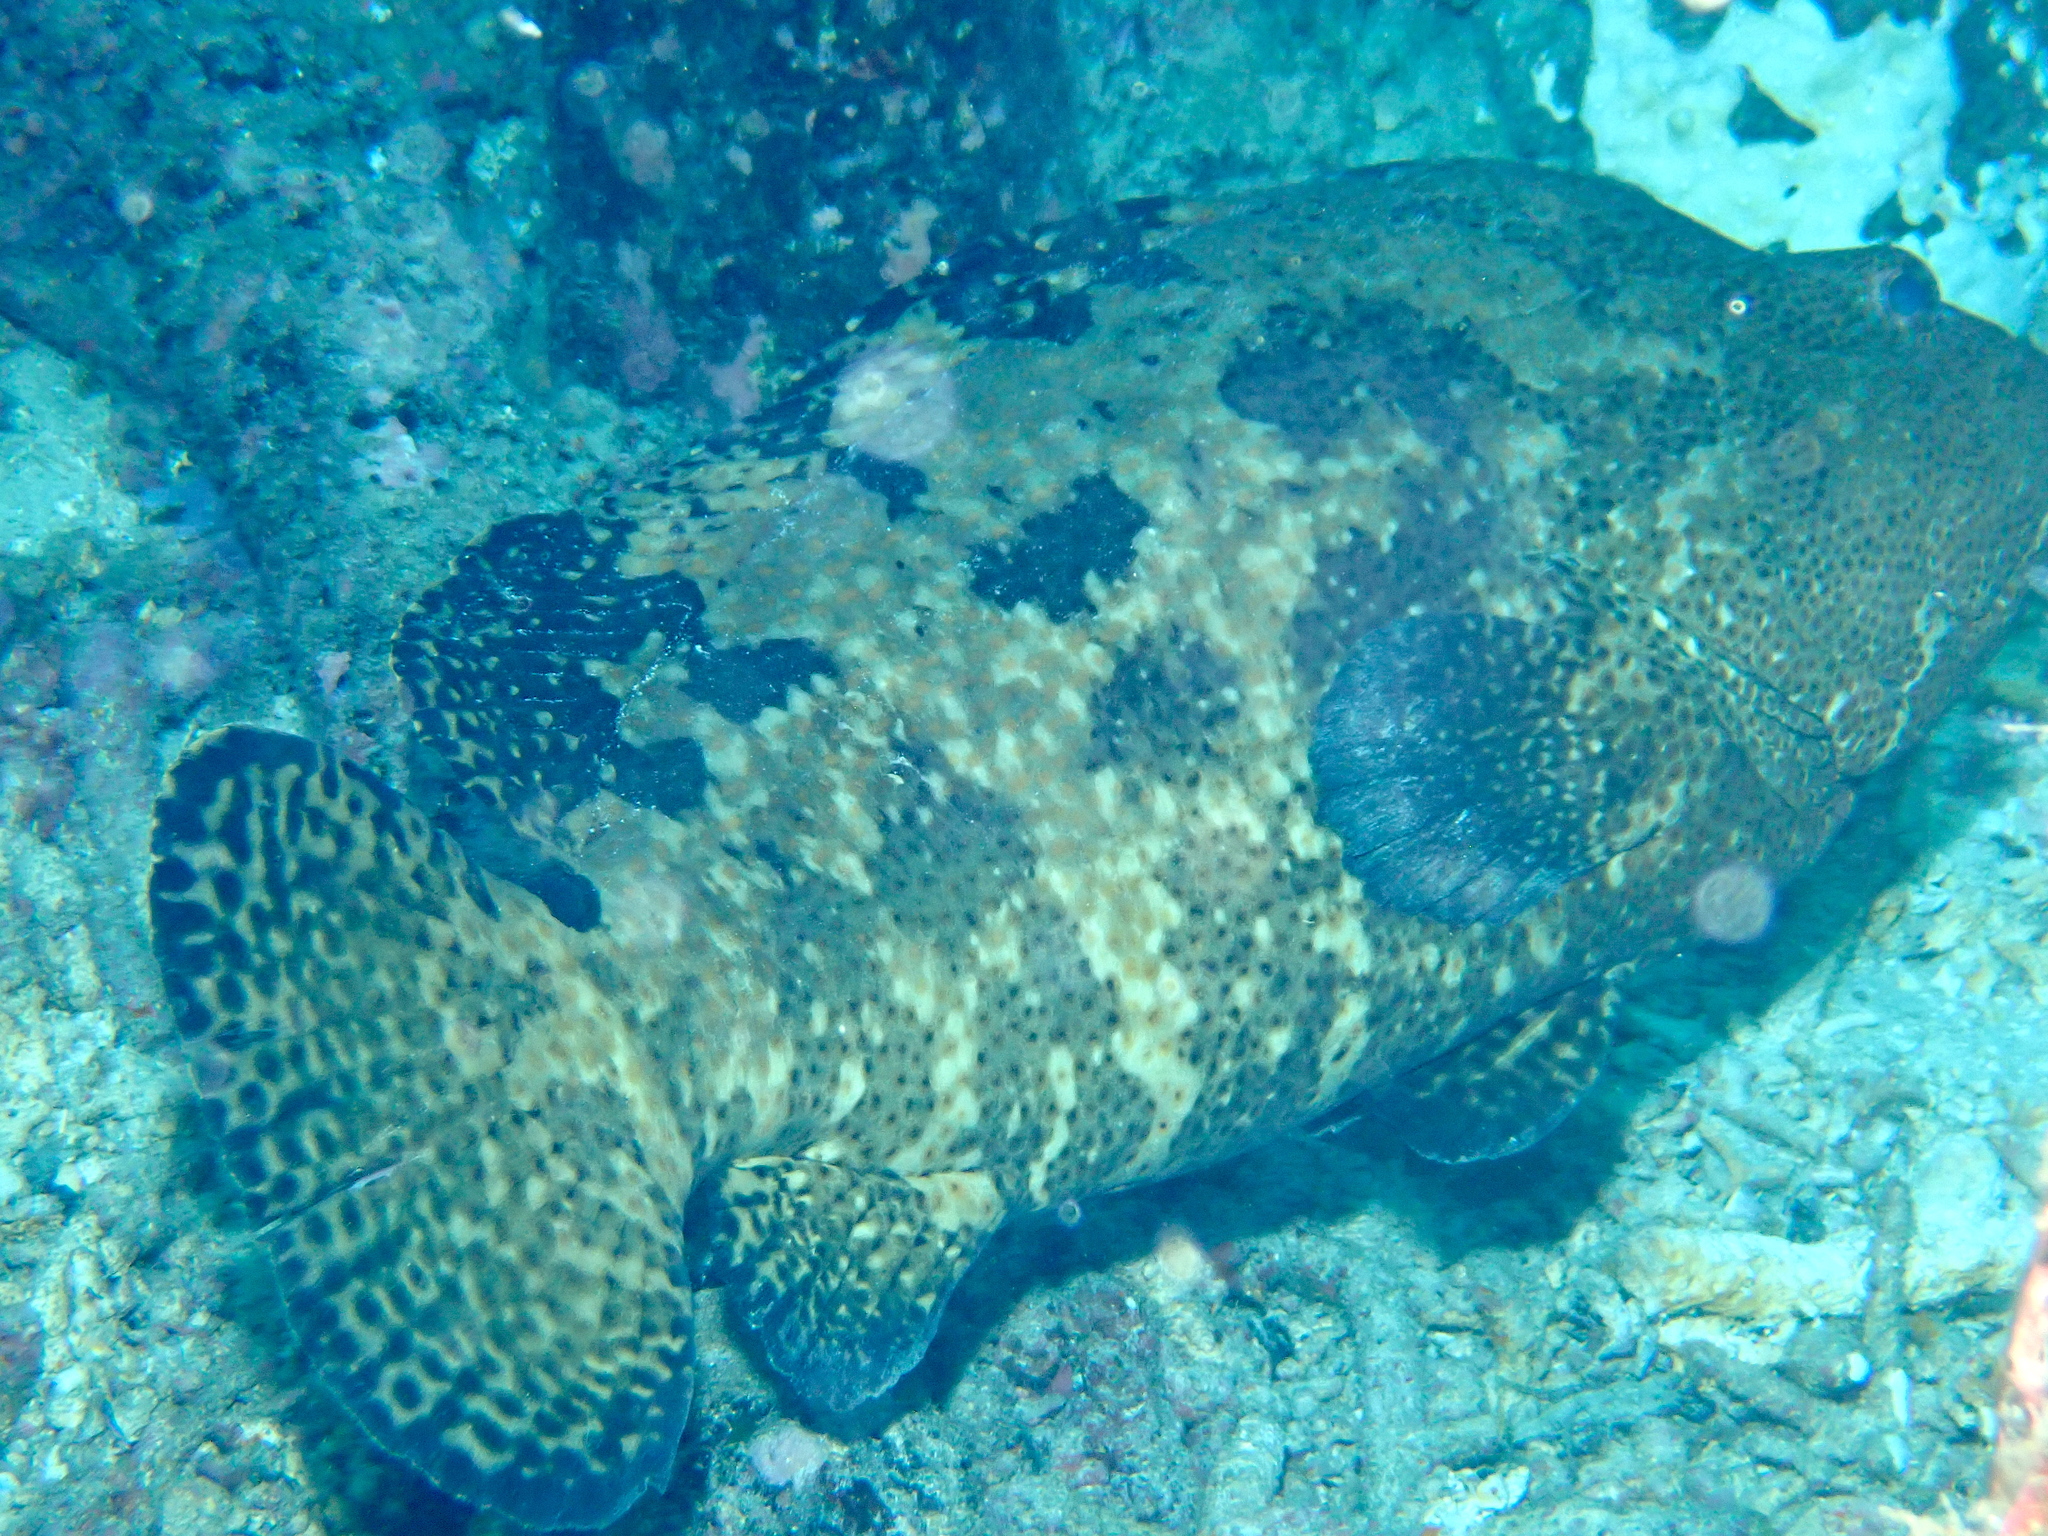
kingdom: Animalia
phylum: Chordata
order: Perciformes
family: Serranidae
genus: Epinephelus
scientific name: Epinephelus fuscoguttatus
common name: Brown-marbled grouper
